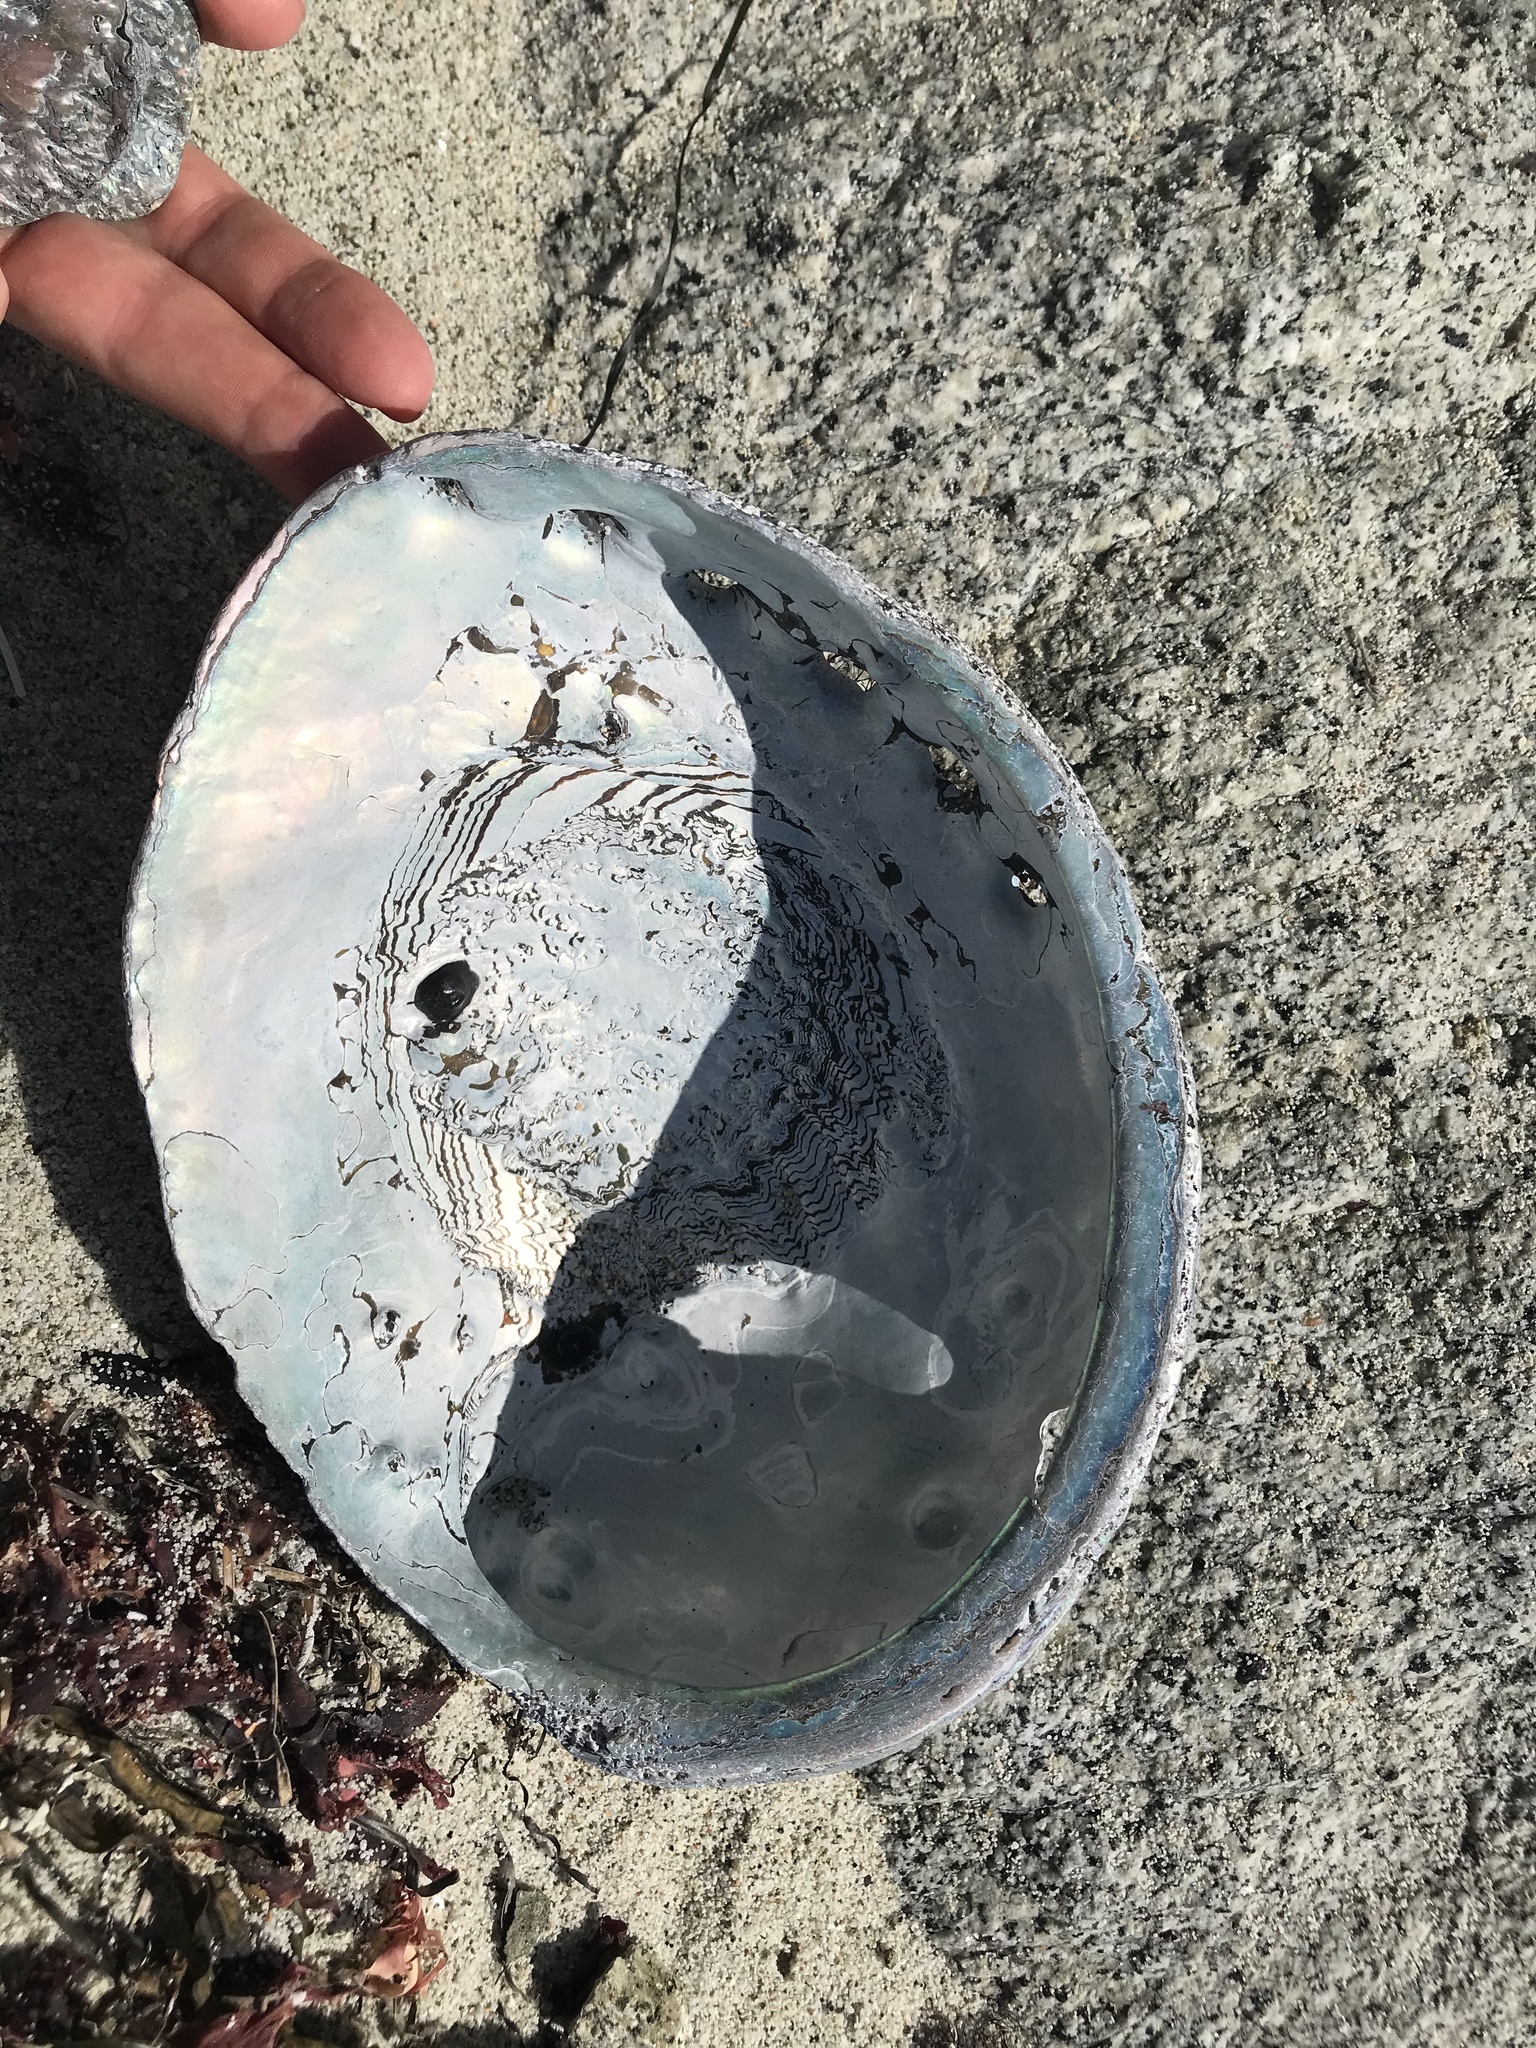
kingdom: Animalia
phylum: Mollusca
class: Gastropoda
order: Lepetellida
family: Haliotidae
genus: Haliotis
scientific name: Haliotis rufescens
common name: Red abalone
